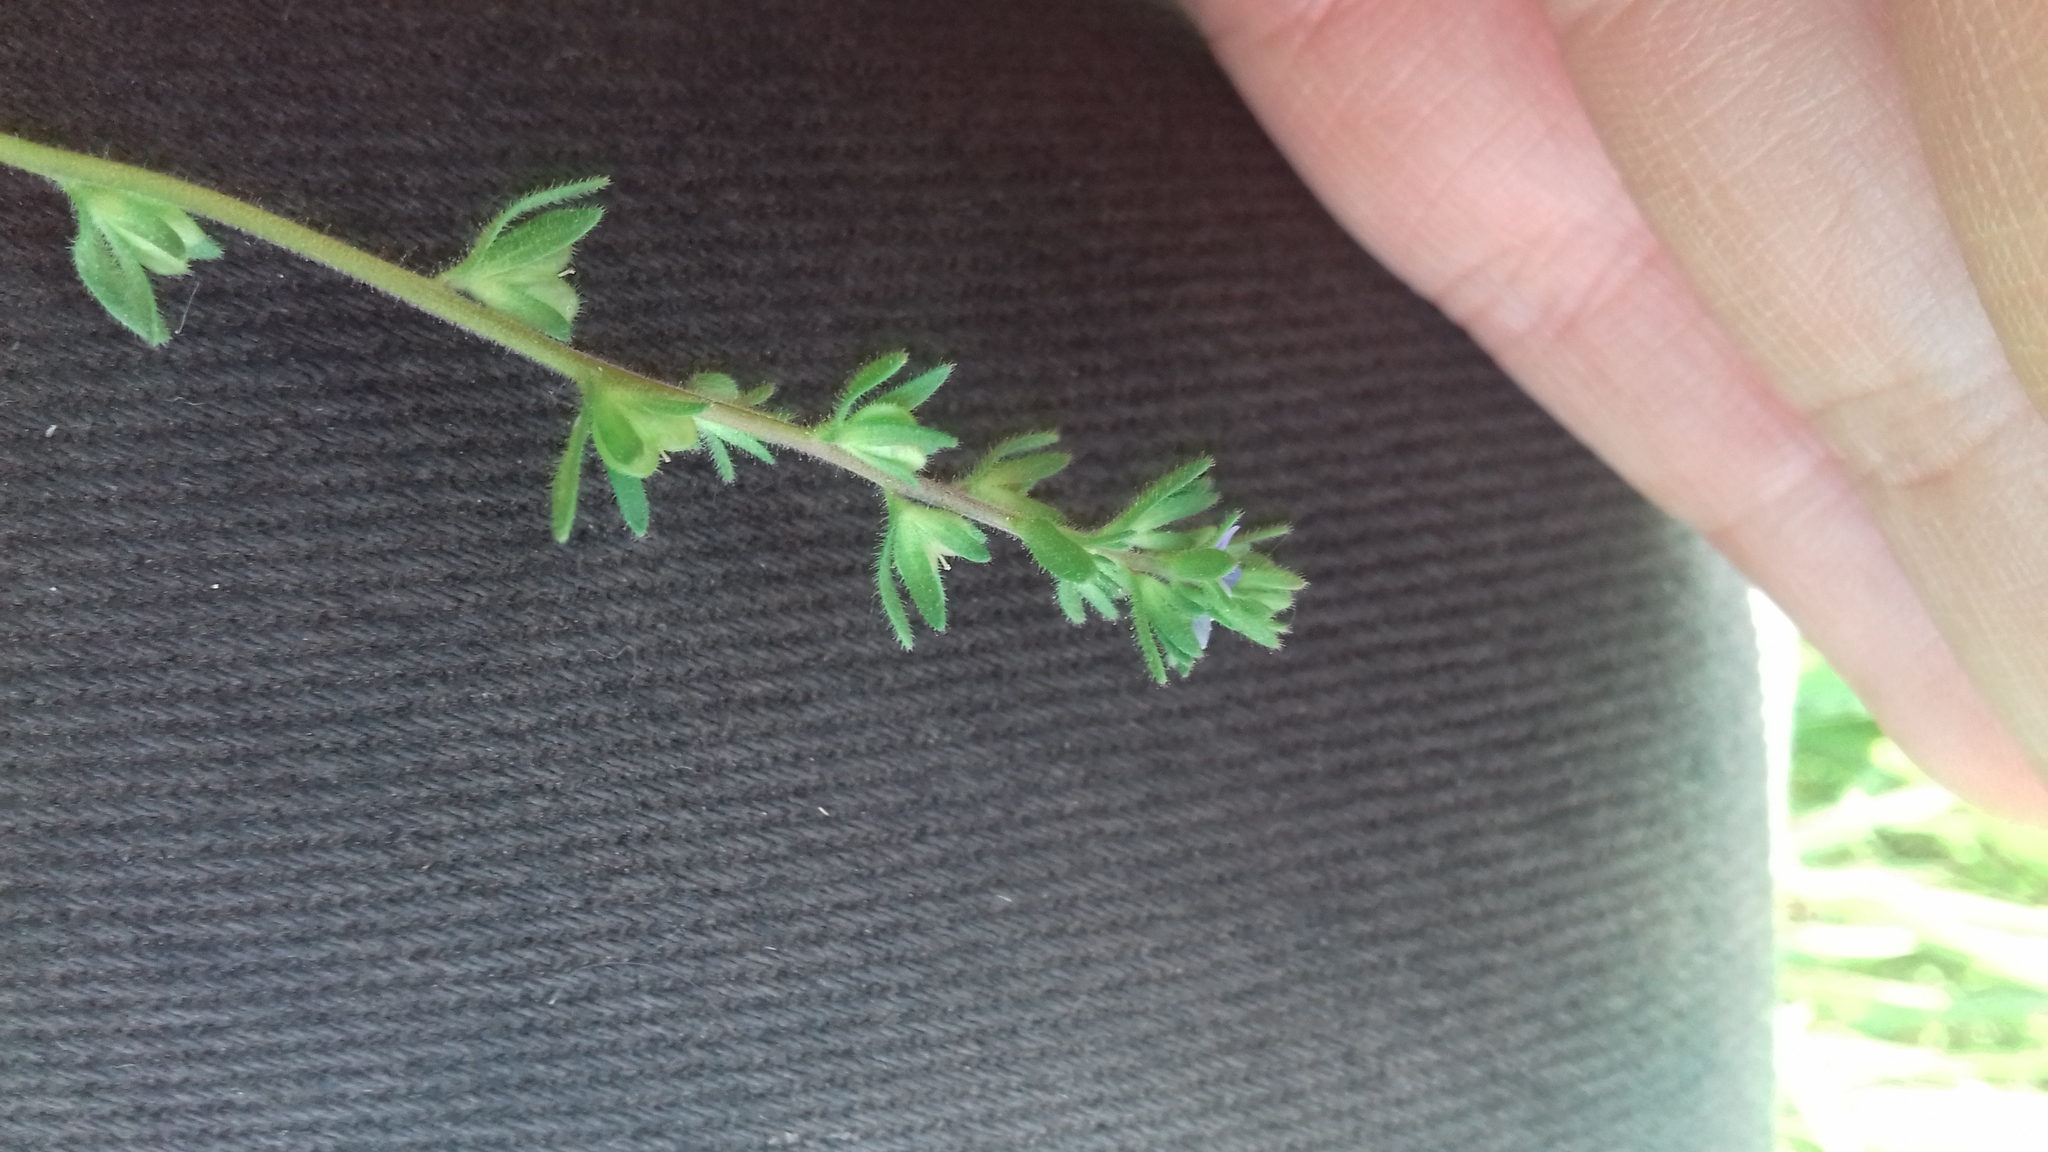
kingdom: Plantae
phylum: Tracheophyta
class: Magnoliopsida
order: Lamiales
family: Plantaginaceae
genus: Veronica
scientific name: Veronica arvensis
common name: Corn speedwell
